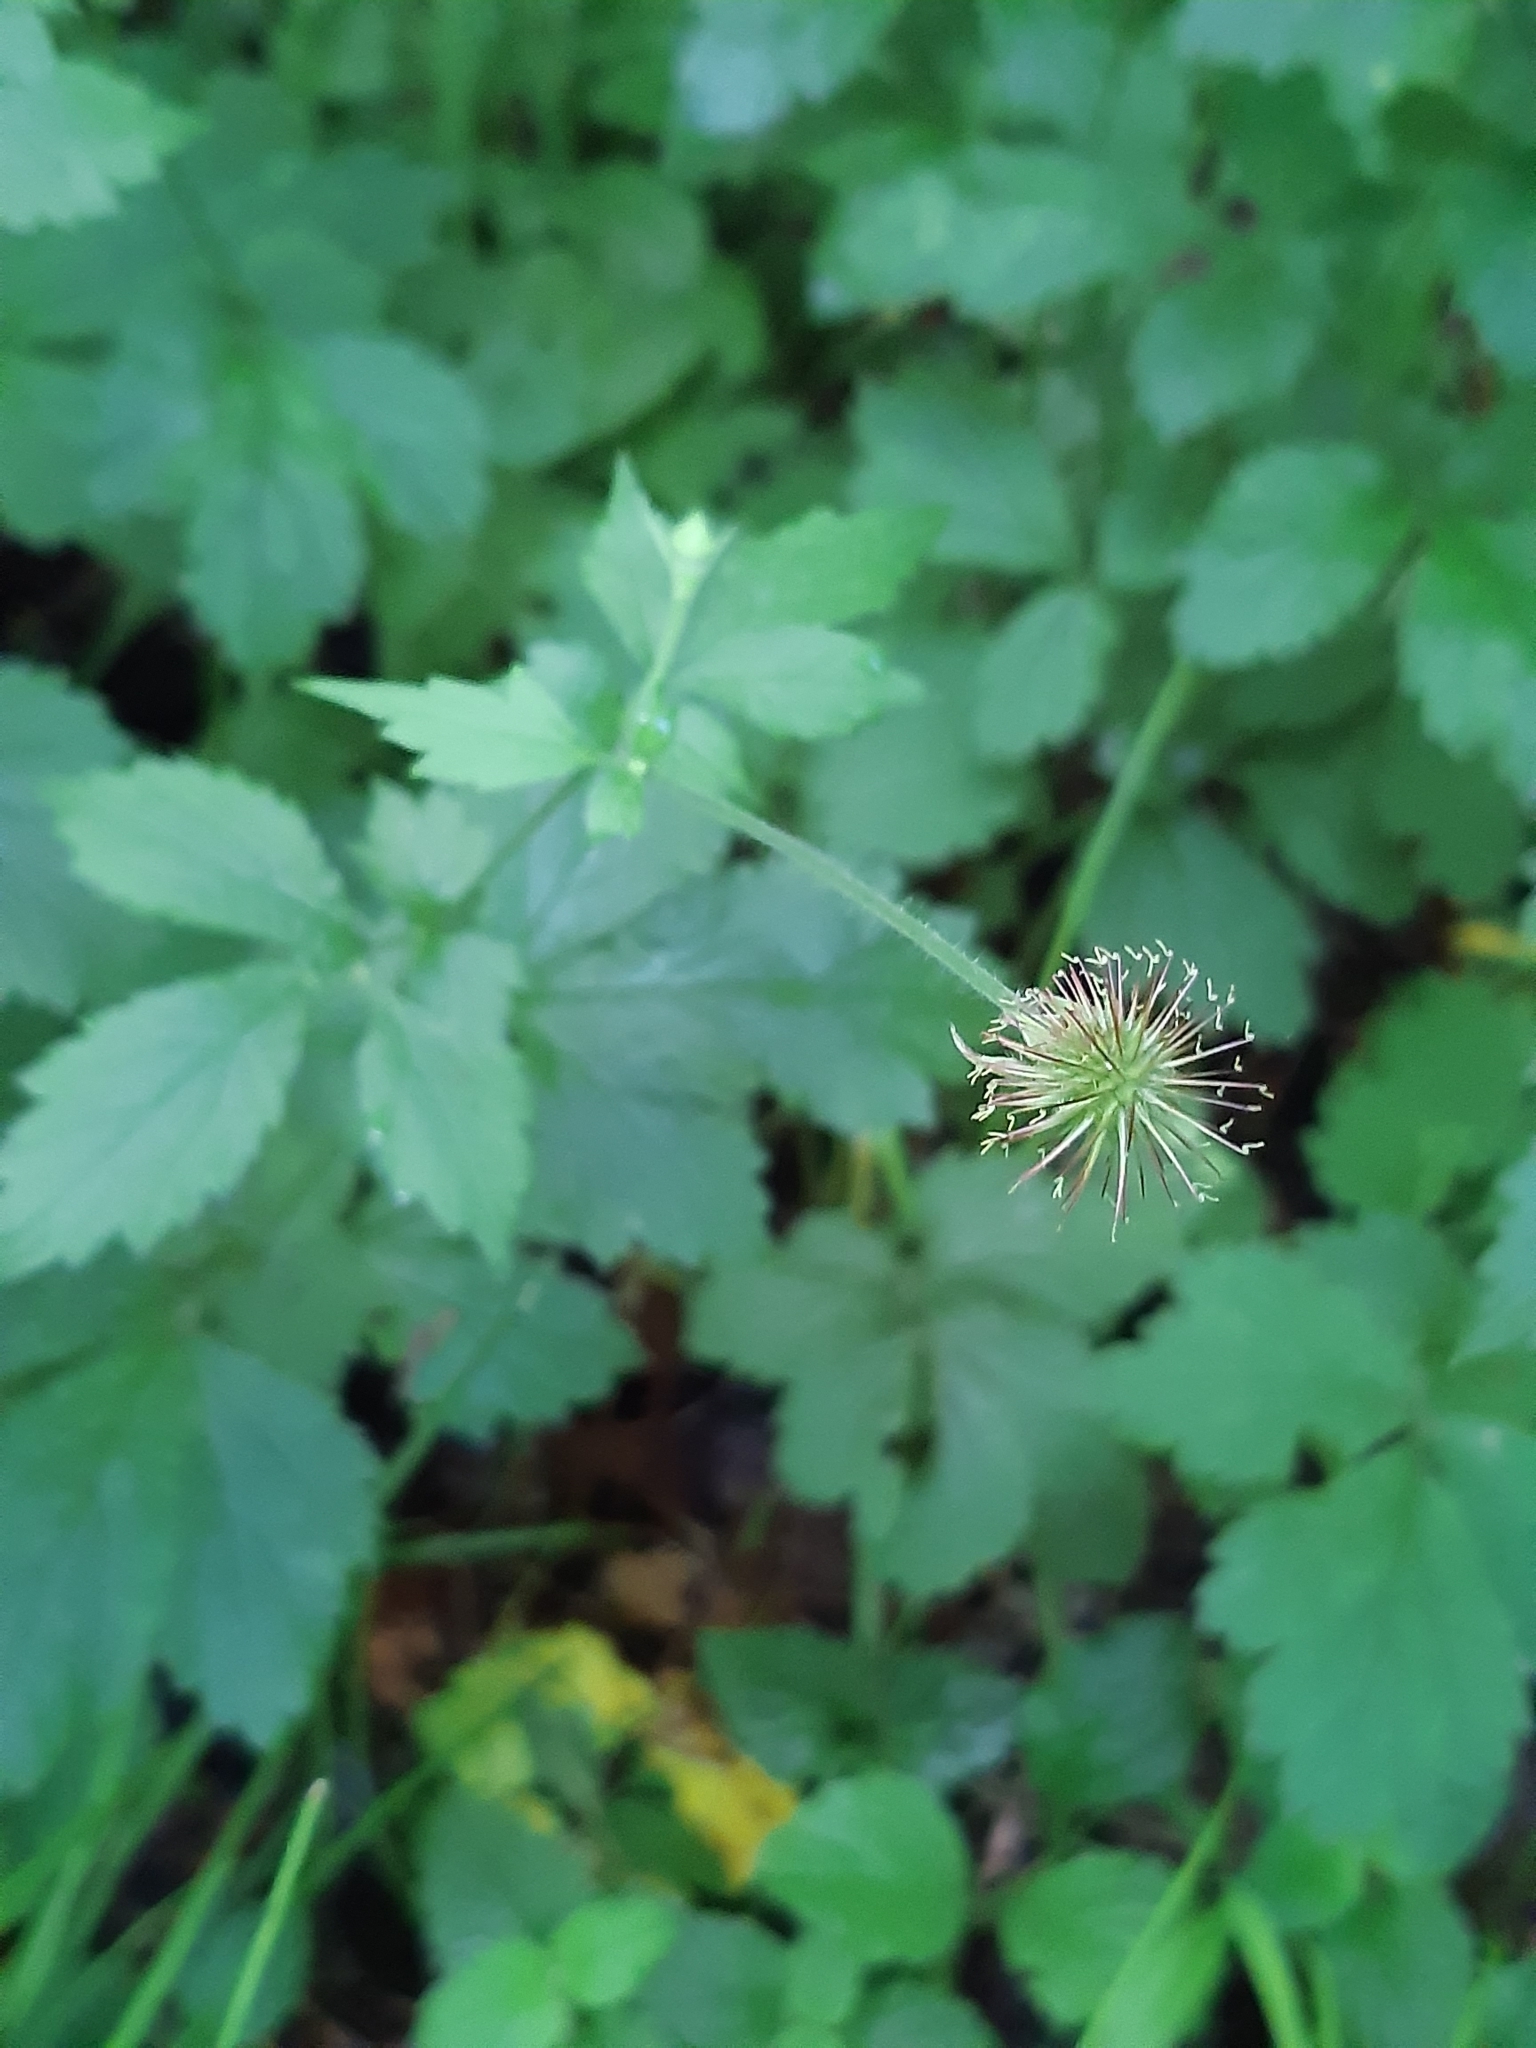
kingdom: Plantae
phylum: Tracheophyta
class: Magnoliopsida
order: Rosales
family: Rosaceae
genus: Geum
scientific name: Geum urbanum
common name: Wood avens
